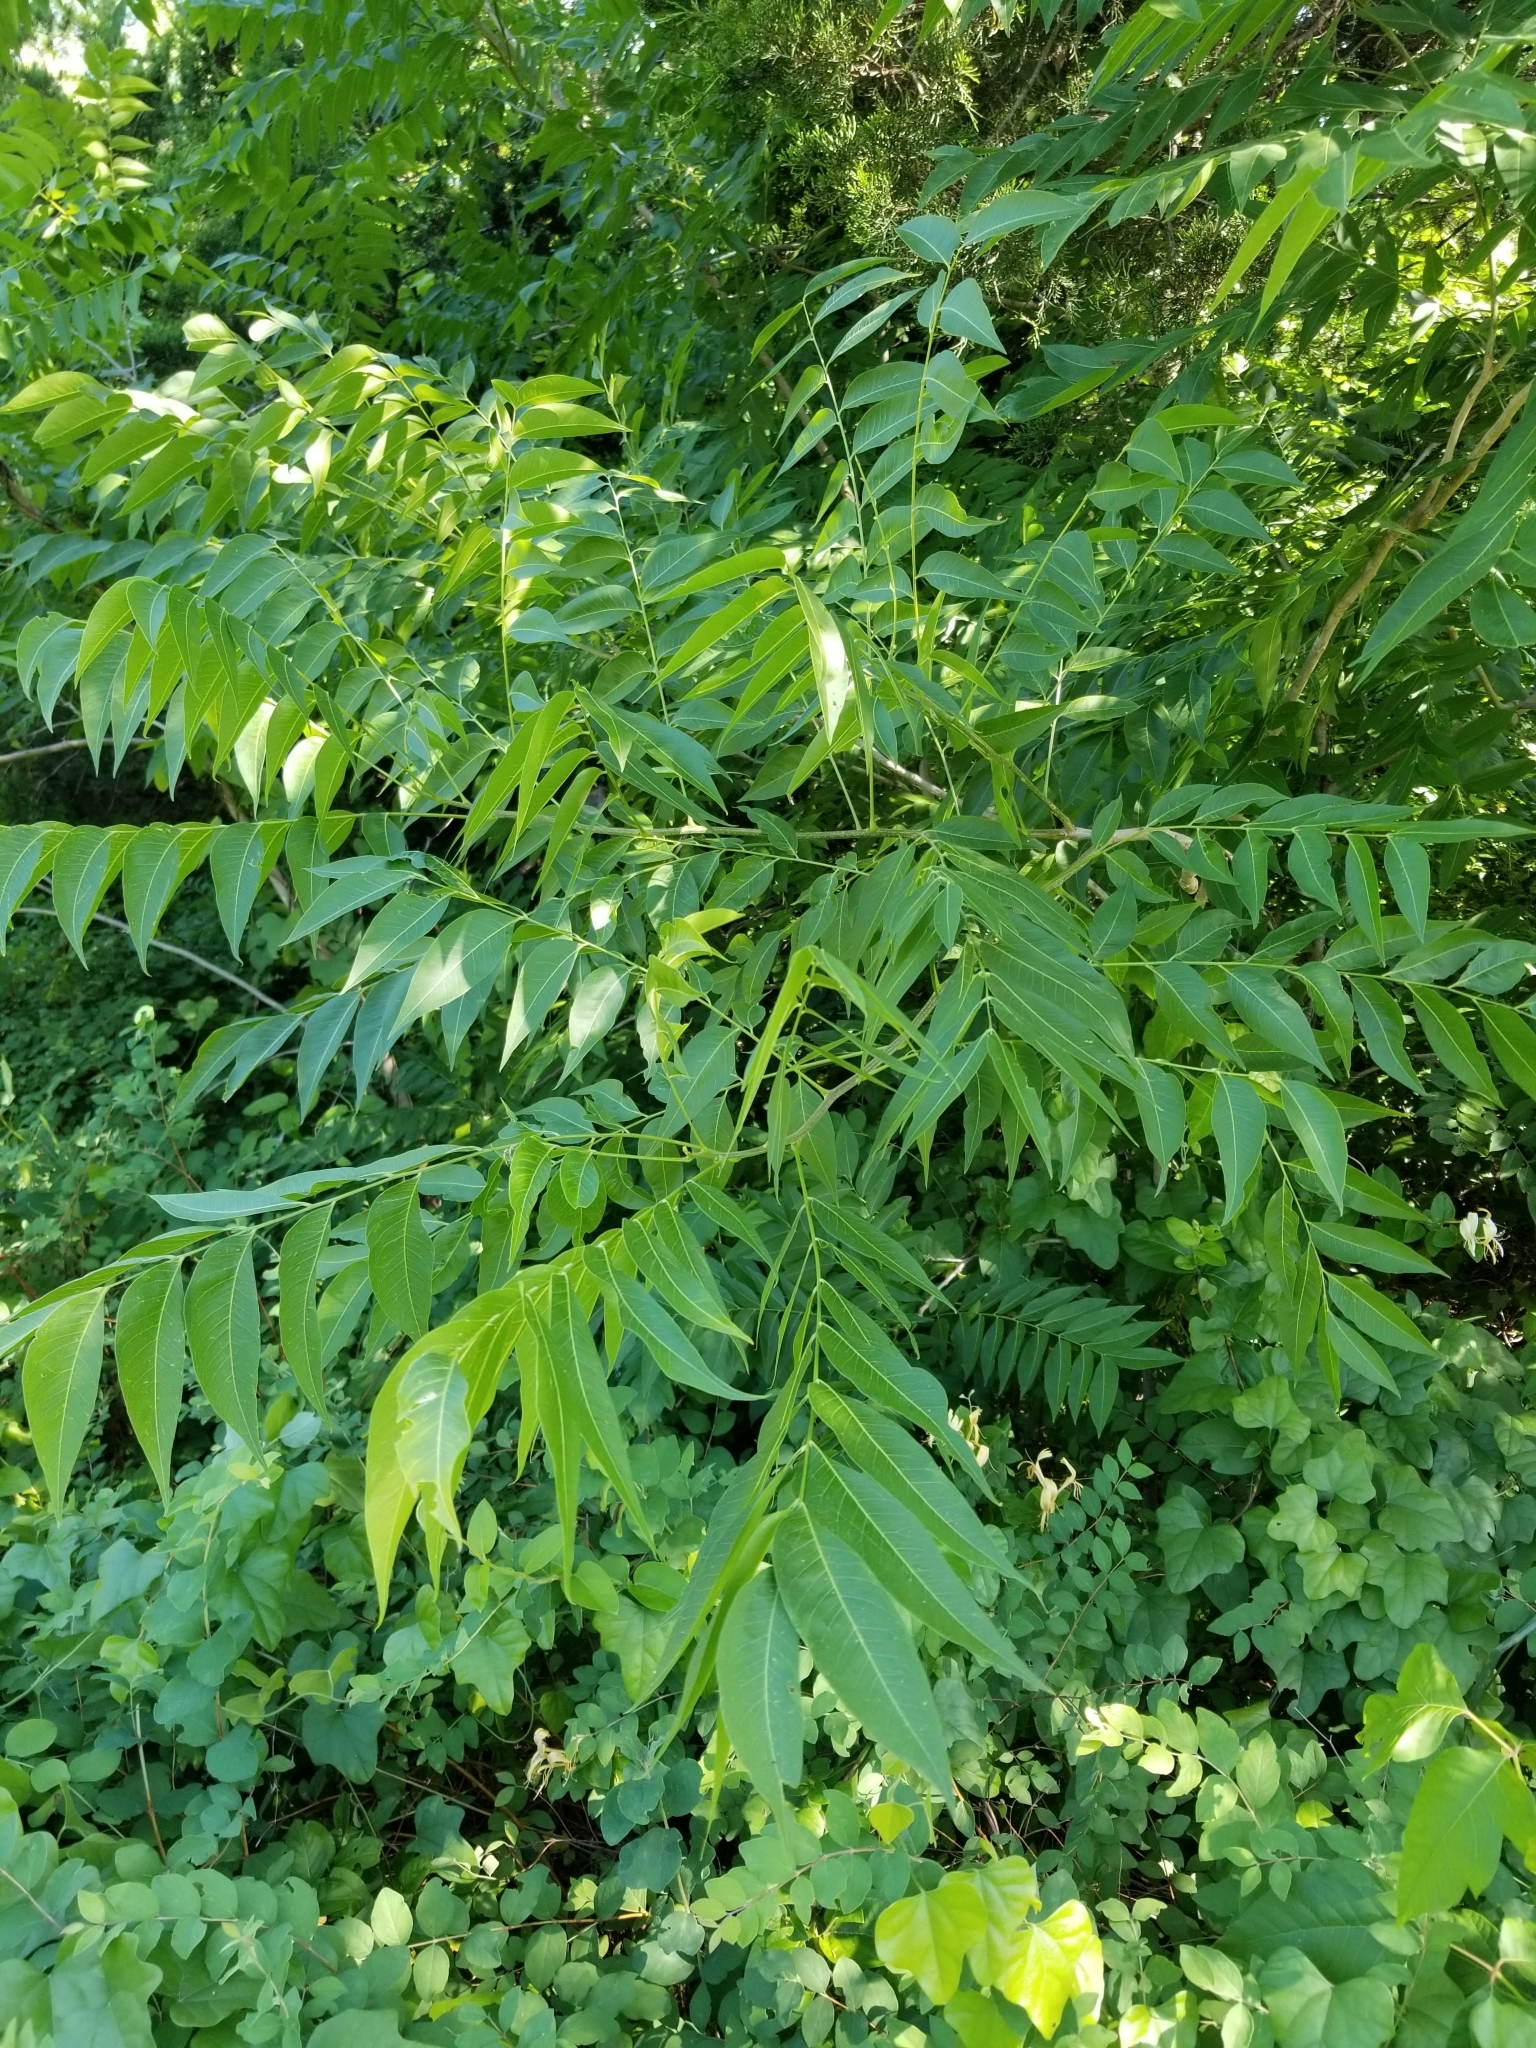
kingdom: Plantae
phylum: Tracheophyta
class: Magnoliopsida
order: Sapindales
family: Sapindaceae
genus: Sapindus
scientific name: Sapindus drummondii
